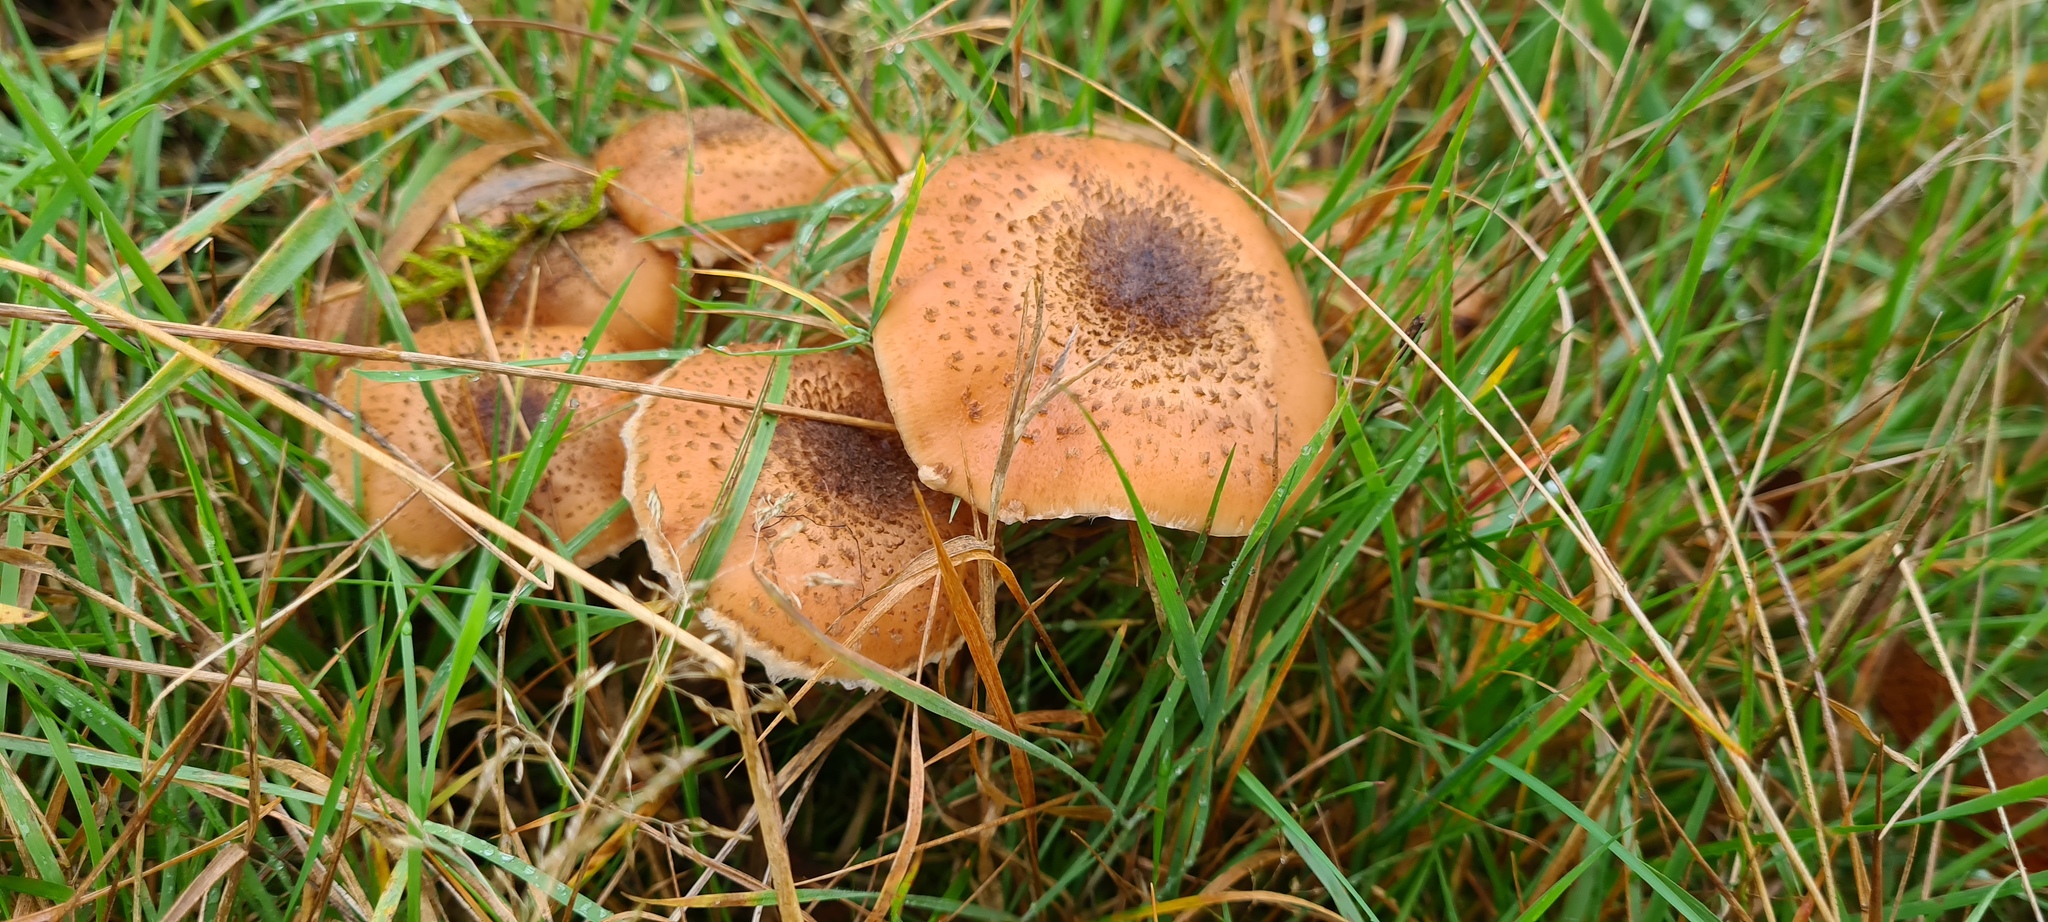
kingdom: Fungi
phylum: Basidiomycota
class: Agaricomycetes
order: Agaricales
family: Physalacriaceae
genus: Armillaria
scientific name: Armillaria ostoyae
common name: Dark honey fungus
